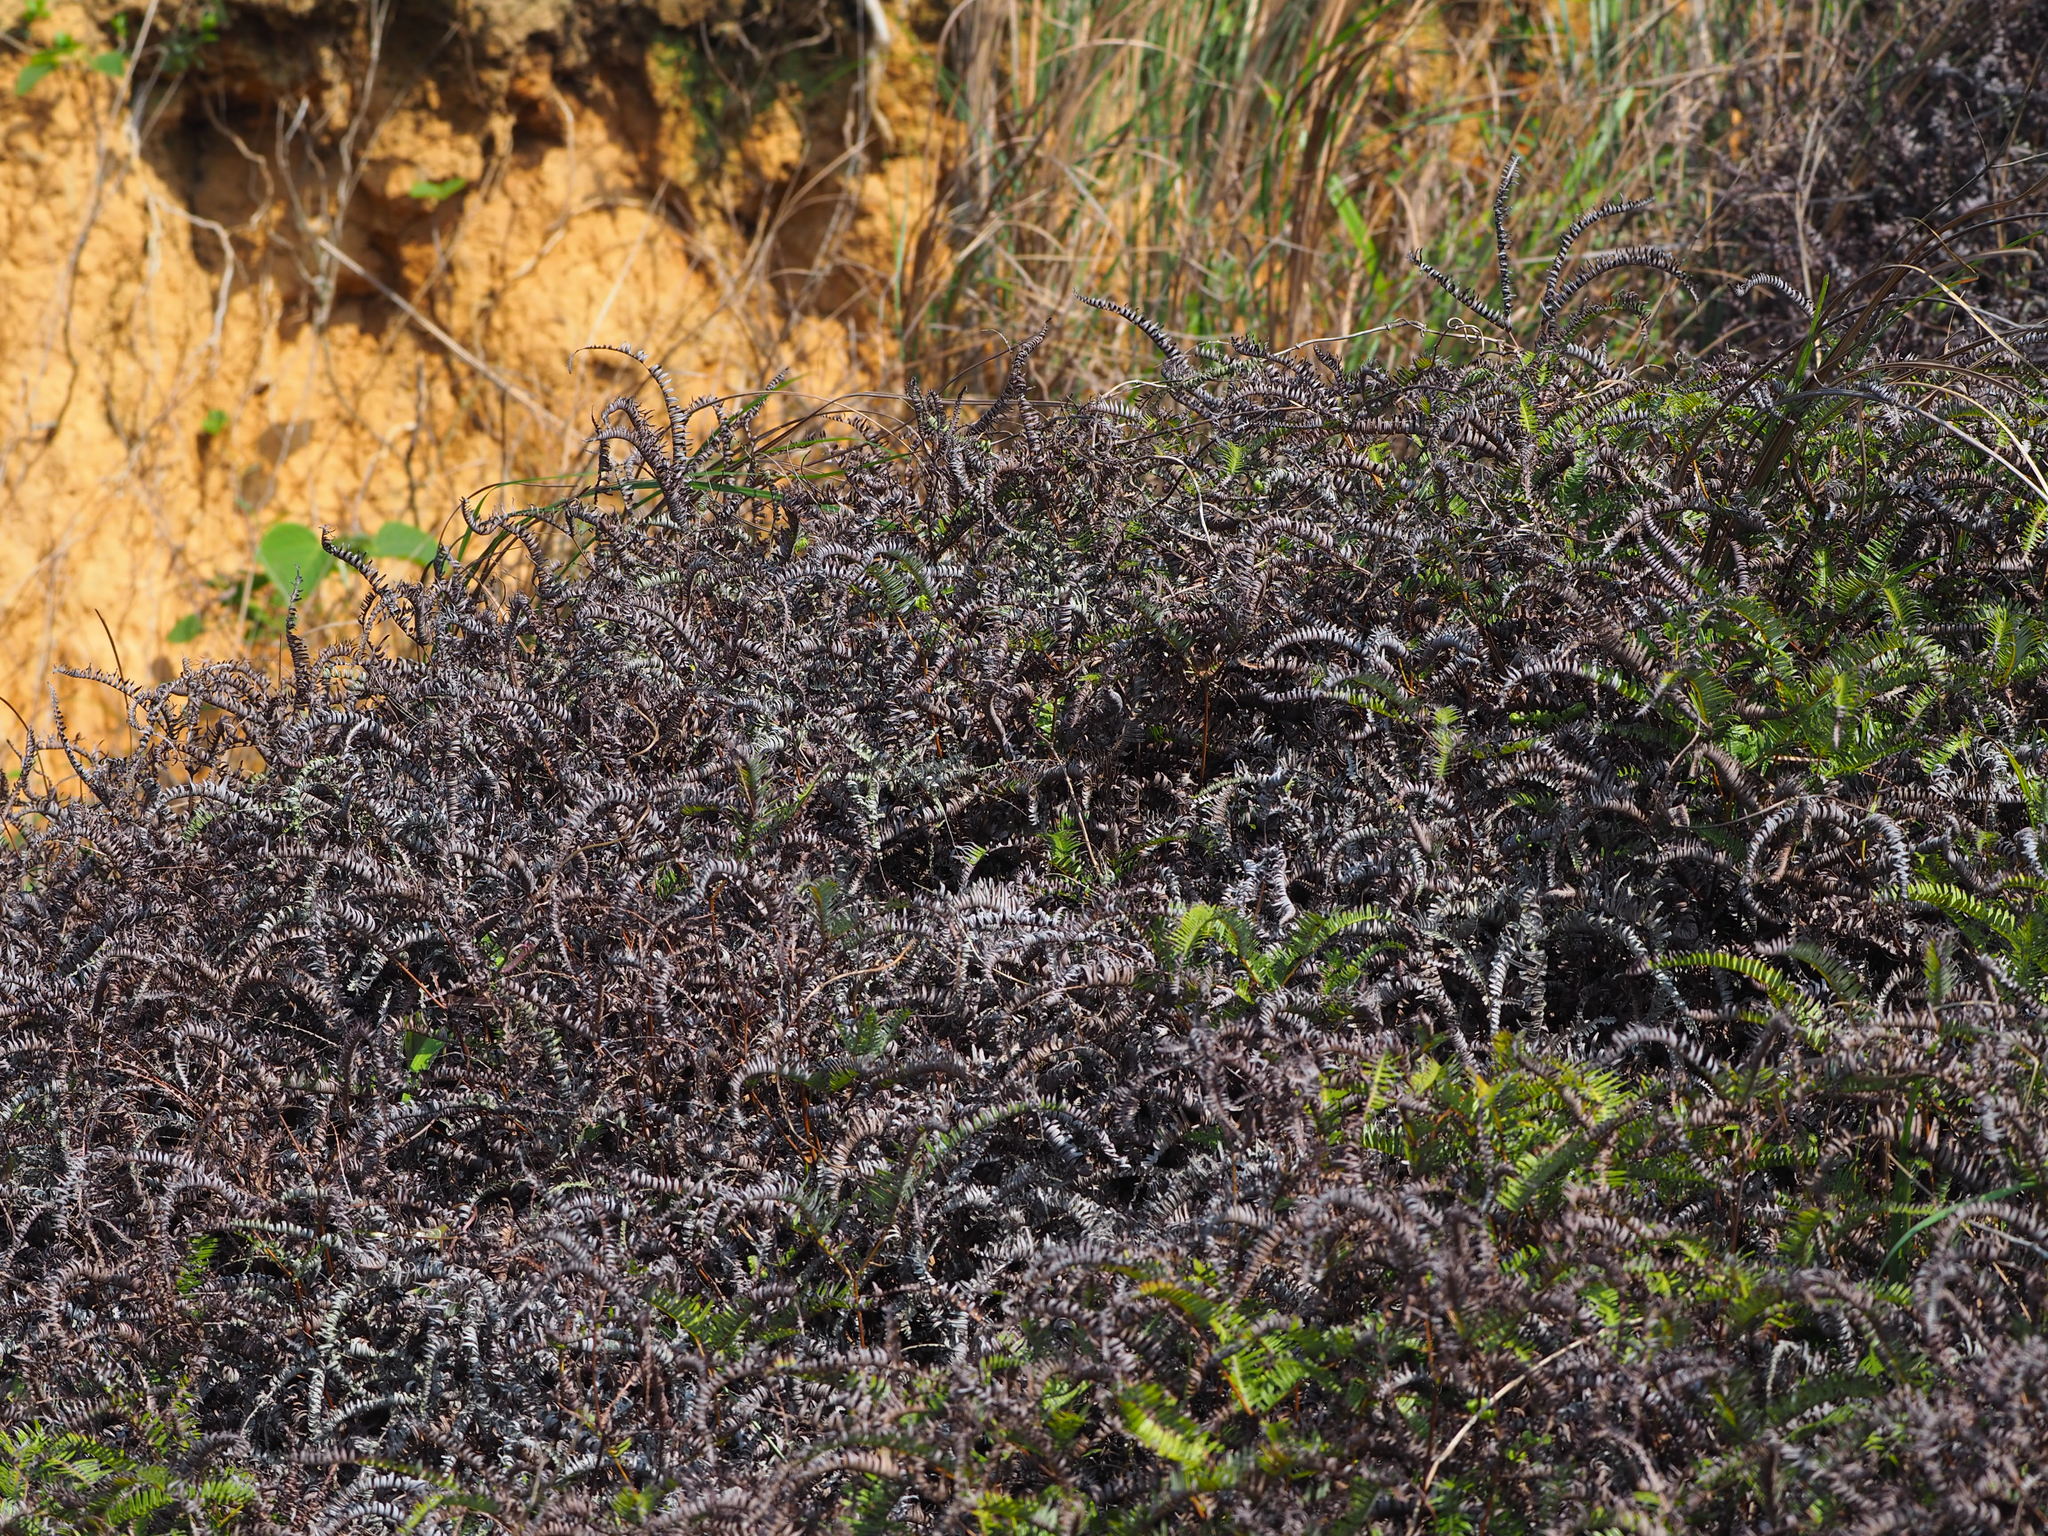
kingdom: Plantae
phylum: Tracheophyta
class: Polypodiopsida
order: Gleicheniales
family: Gleicheniaceae
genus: Dicranopteris
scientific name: Dicranopteris linearis
